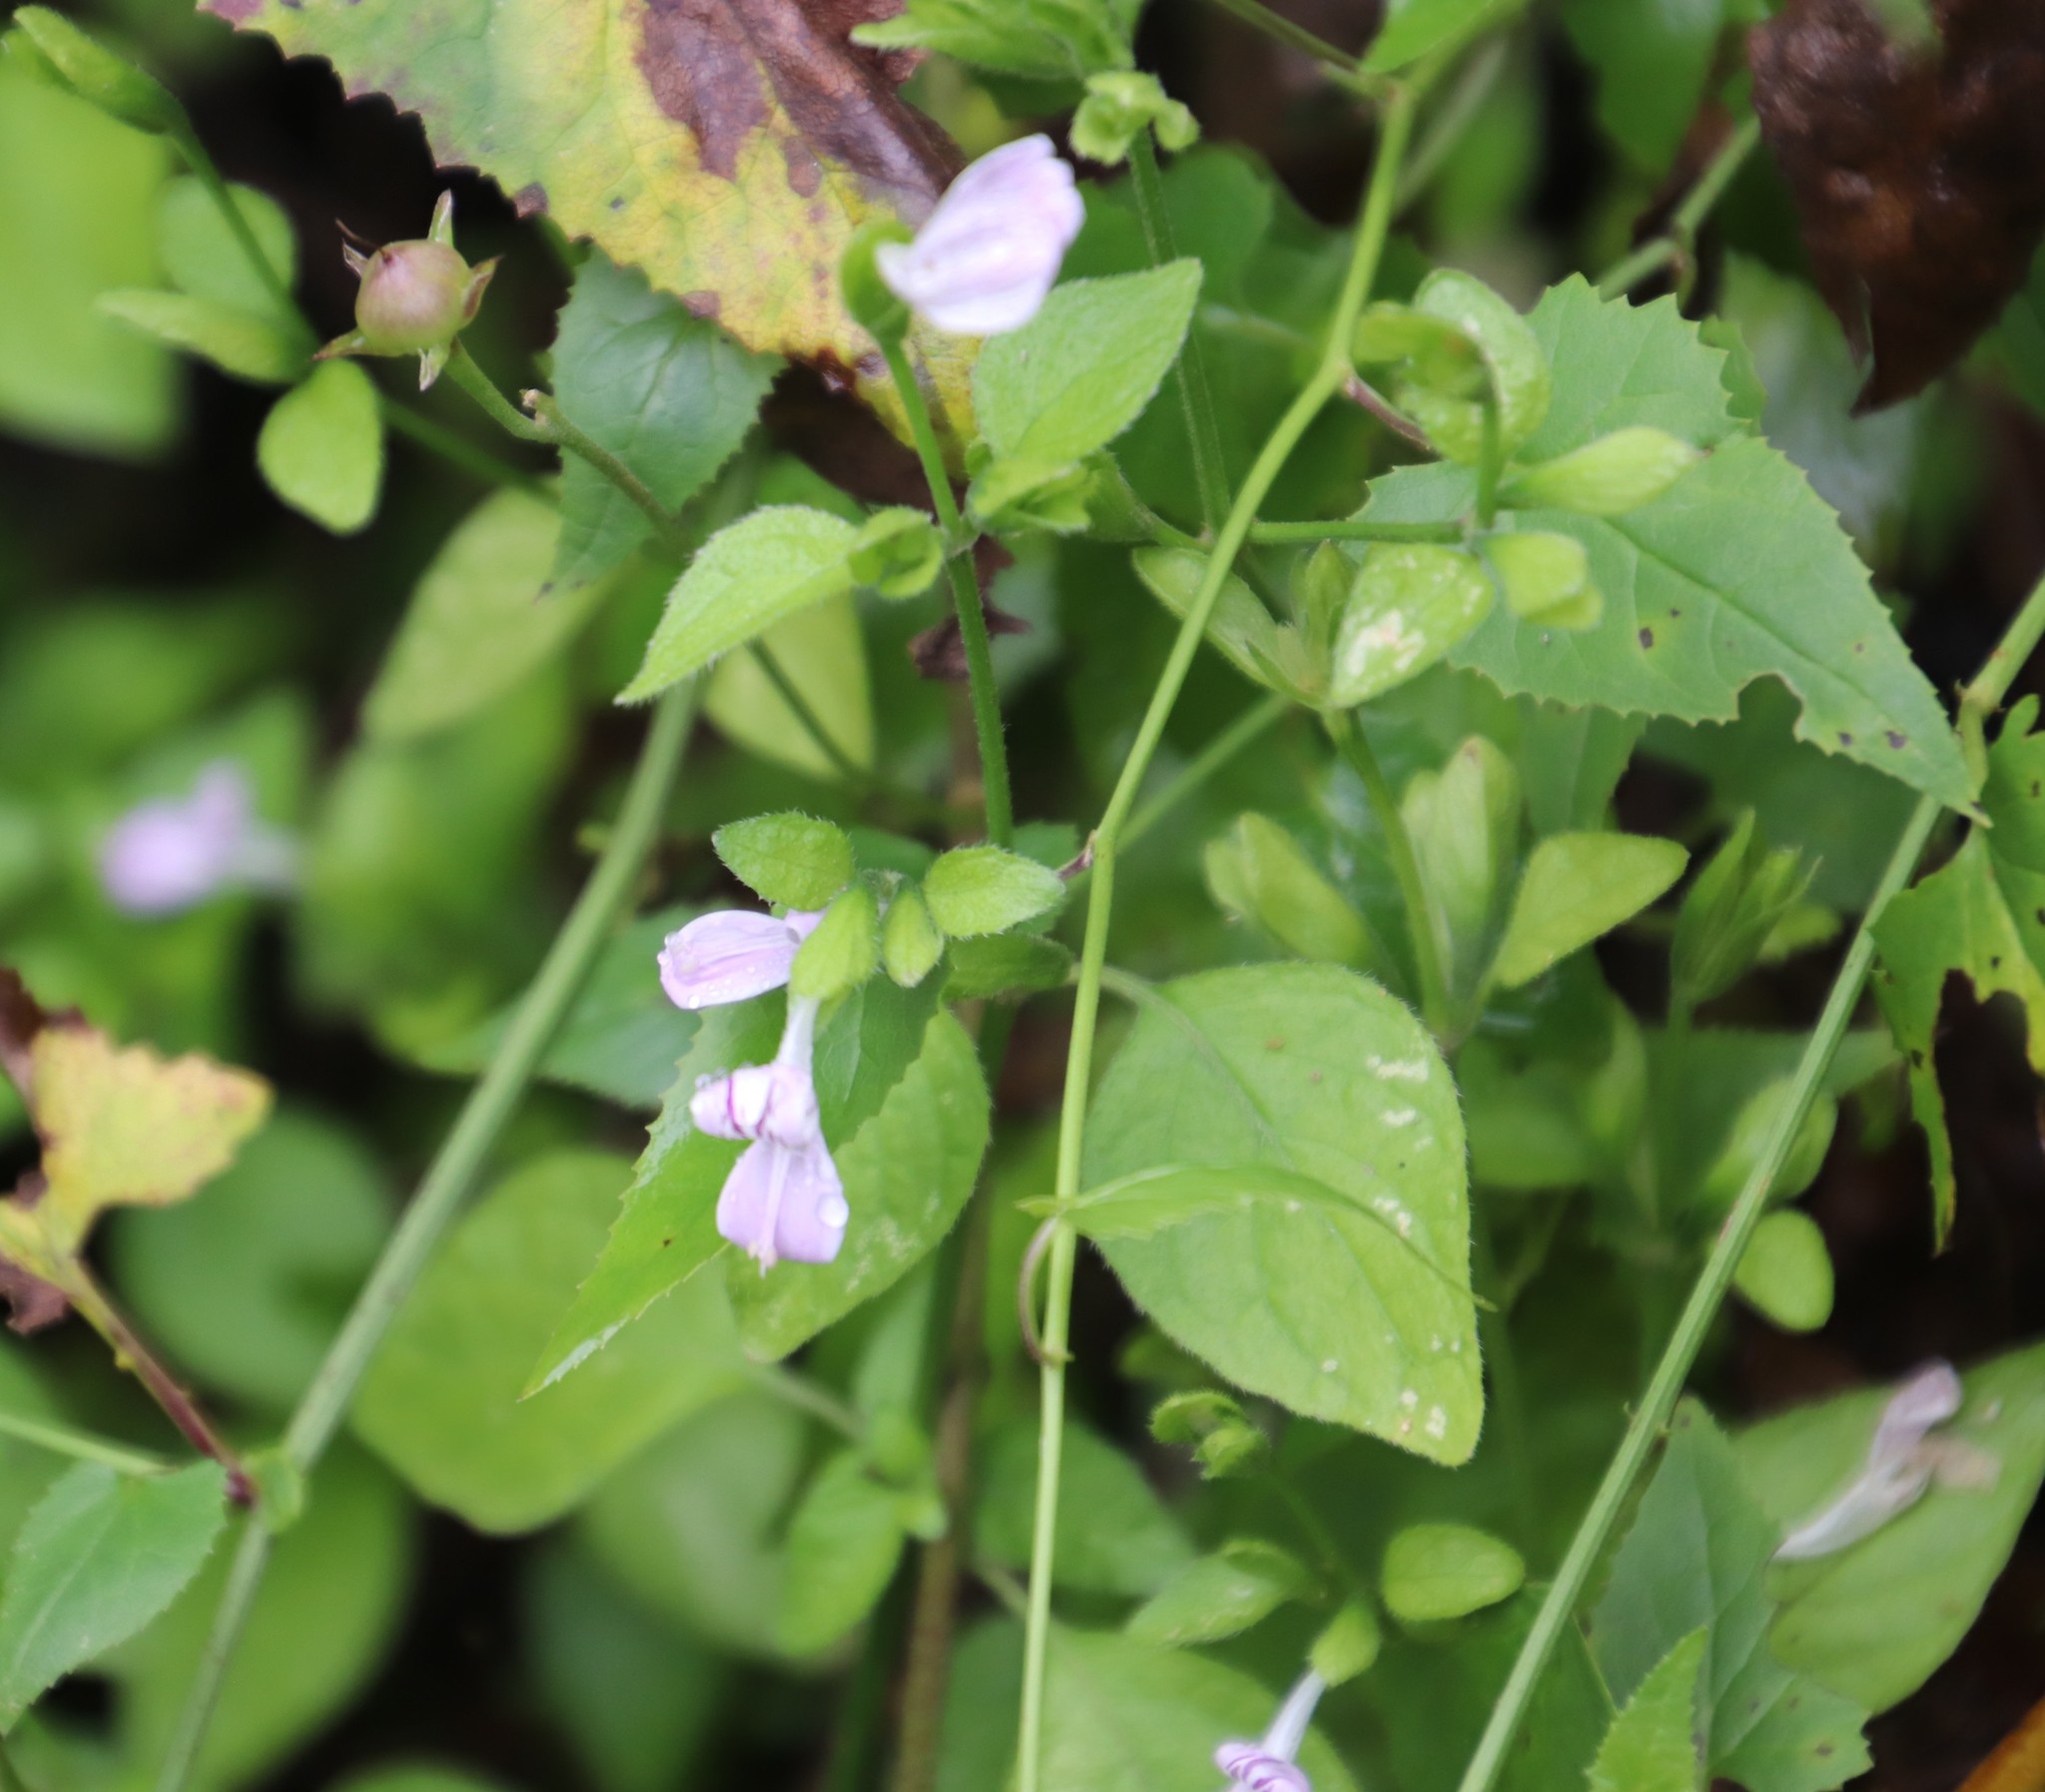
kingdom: Plantae
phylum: Tracheophyta
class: Magnoliopsida
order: Lamiales
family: Acanthaceae
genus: Hypoestes
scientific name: Hypoestes triflora
